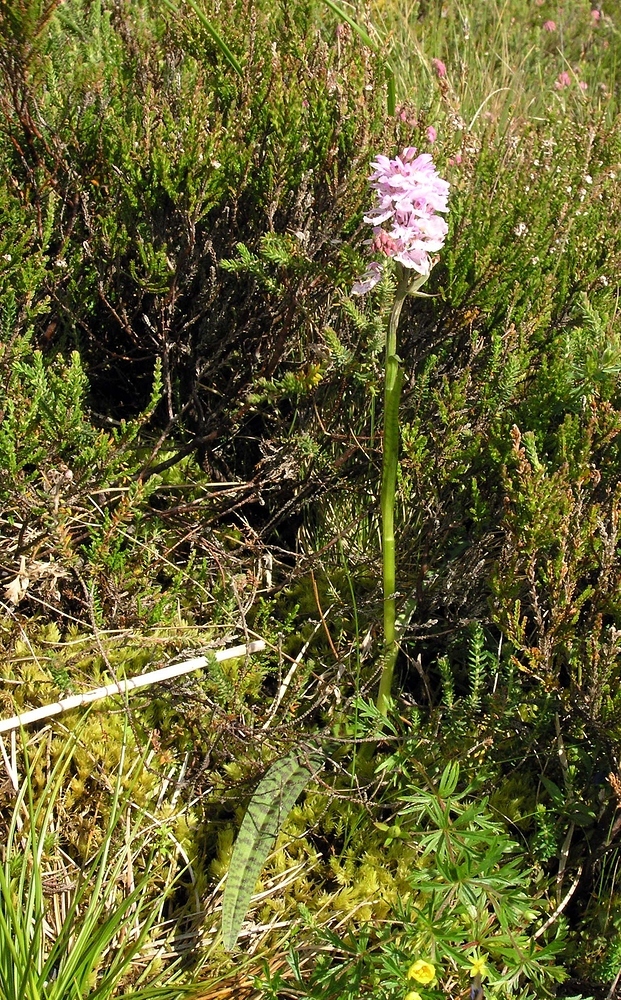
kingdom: Plantae
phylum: Tracheophyta
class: Liliopsida
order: Asparagales
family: Orchidaceae
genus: Dactylorhiza
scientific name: Dactylorhiza maculata
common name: Heath spotted-orchid
